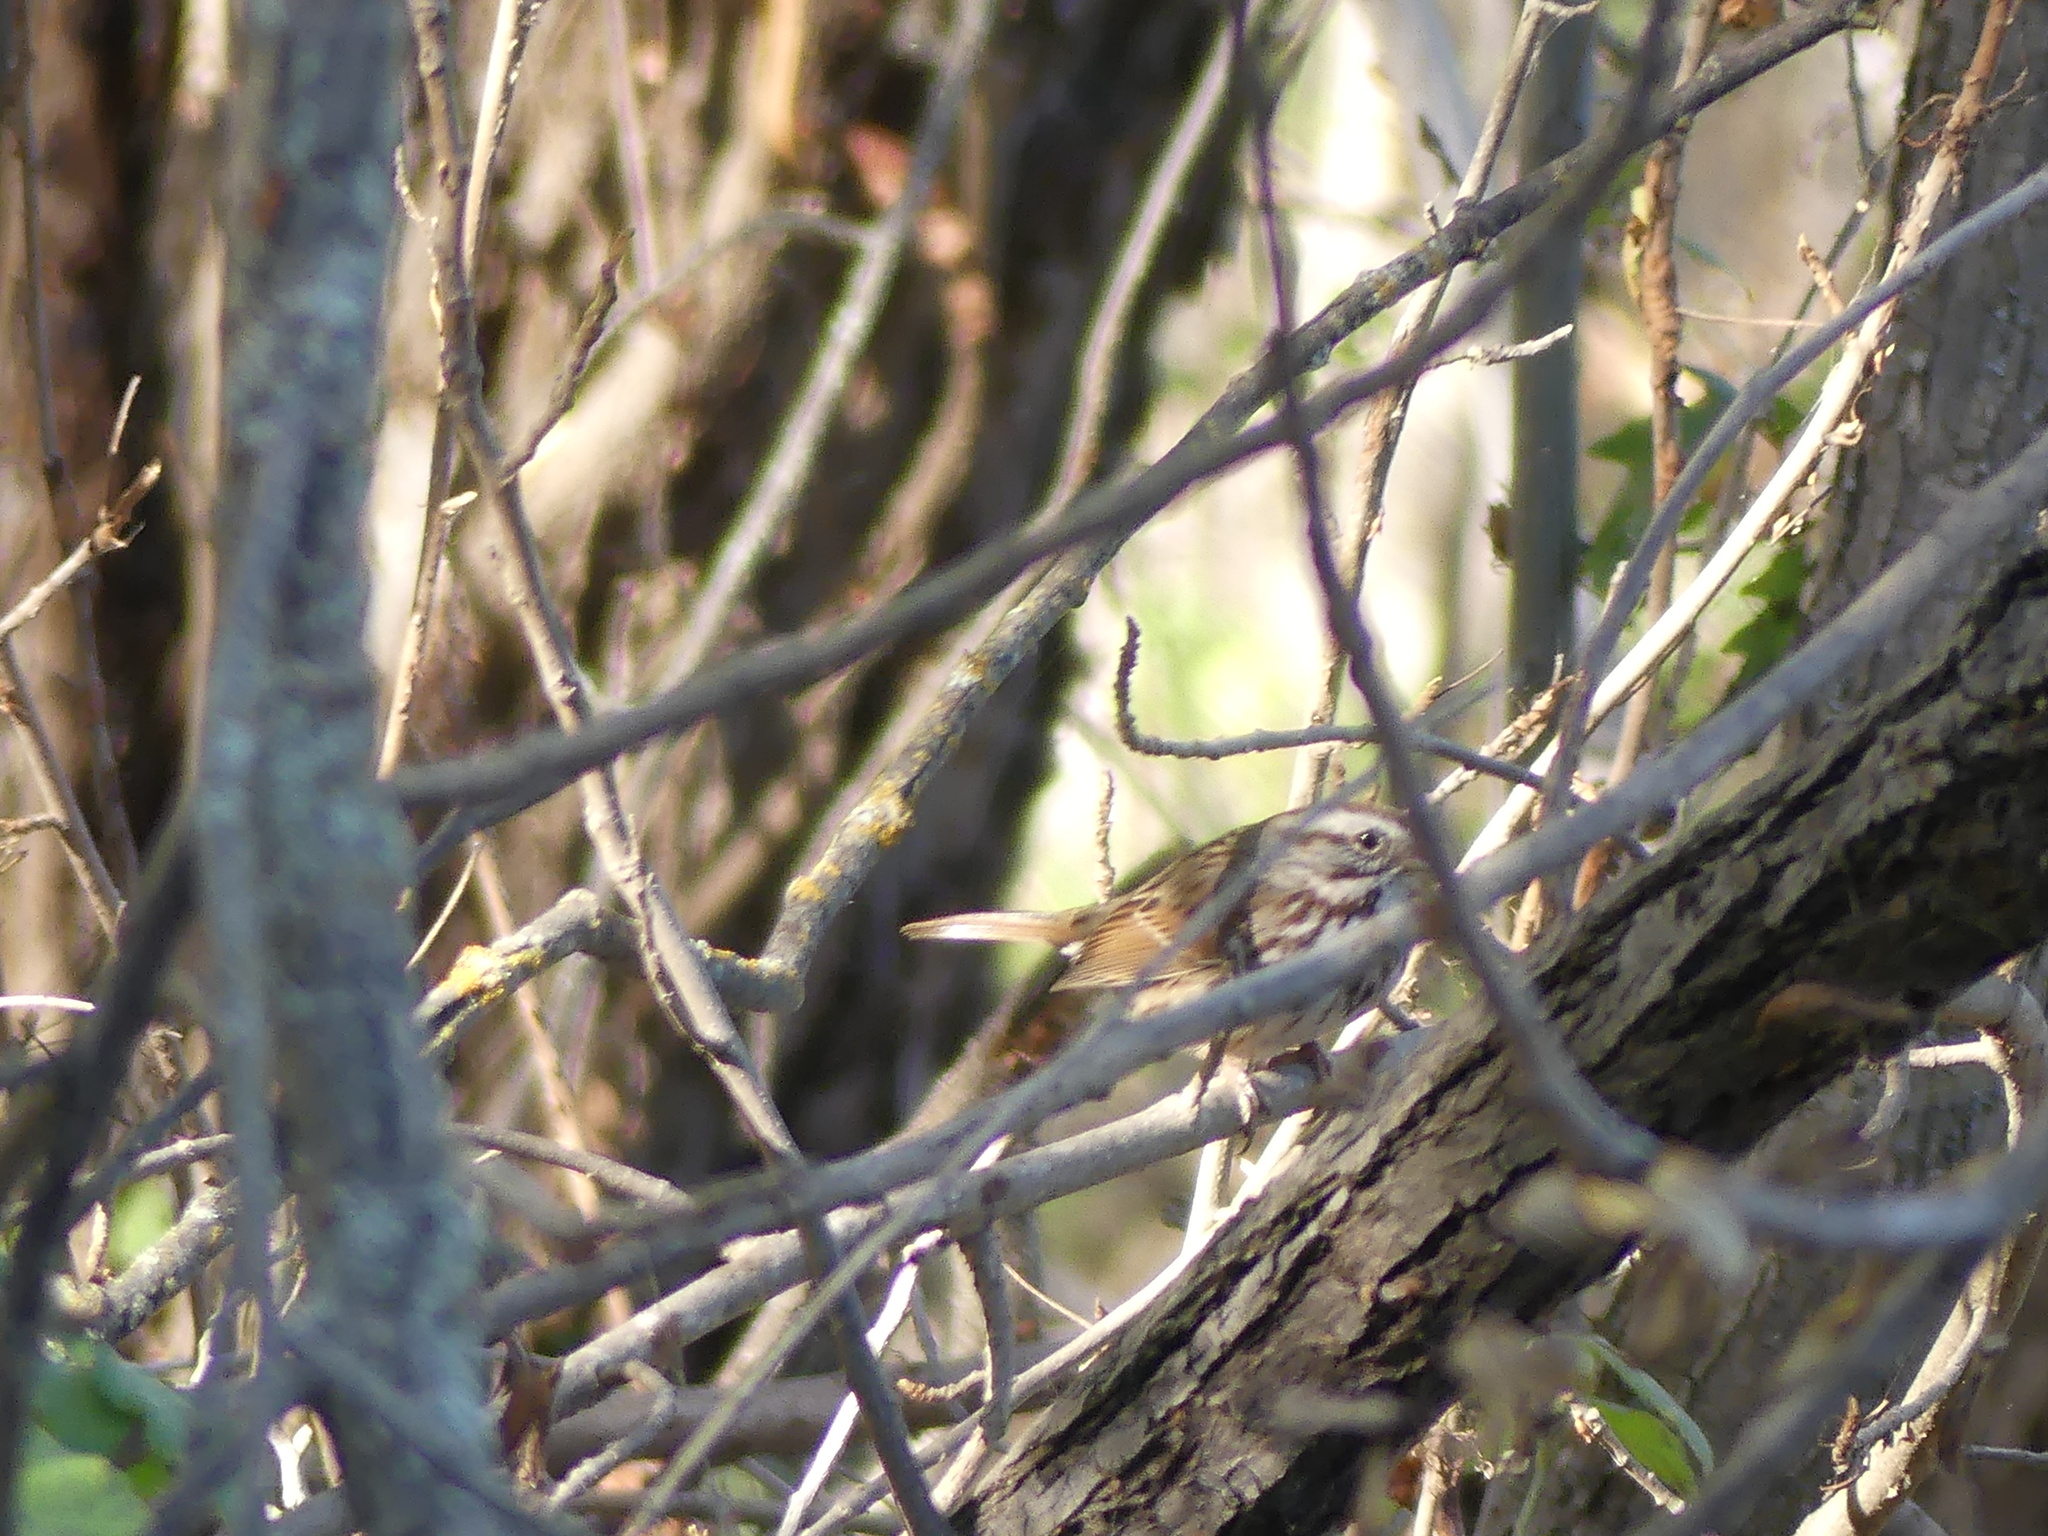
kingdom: Animalia
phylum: Chordata
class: Aves
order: Passeriformes
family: Passerellidae
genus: Melospiza
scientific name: Melospiza melodia
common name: Song sparrow
